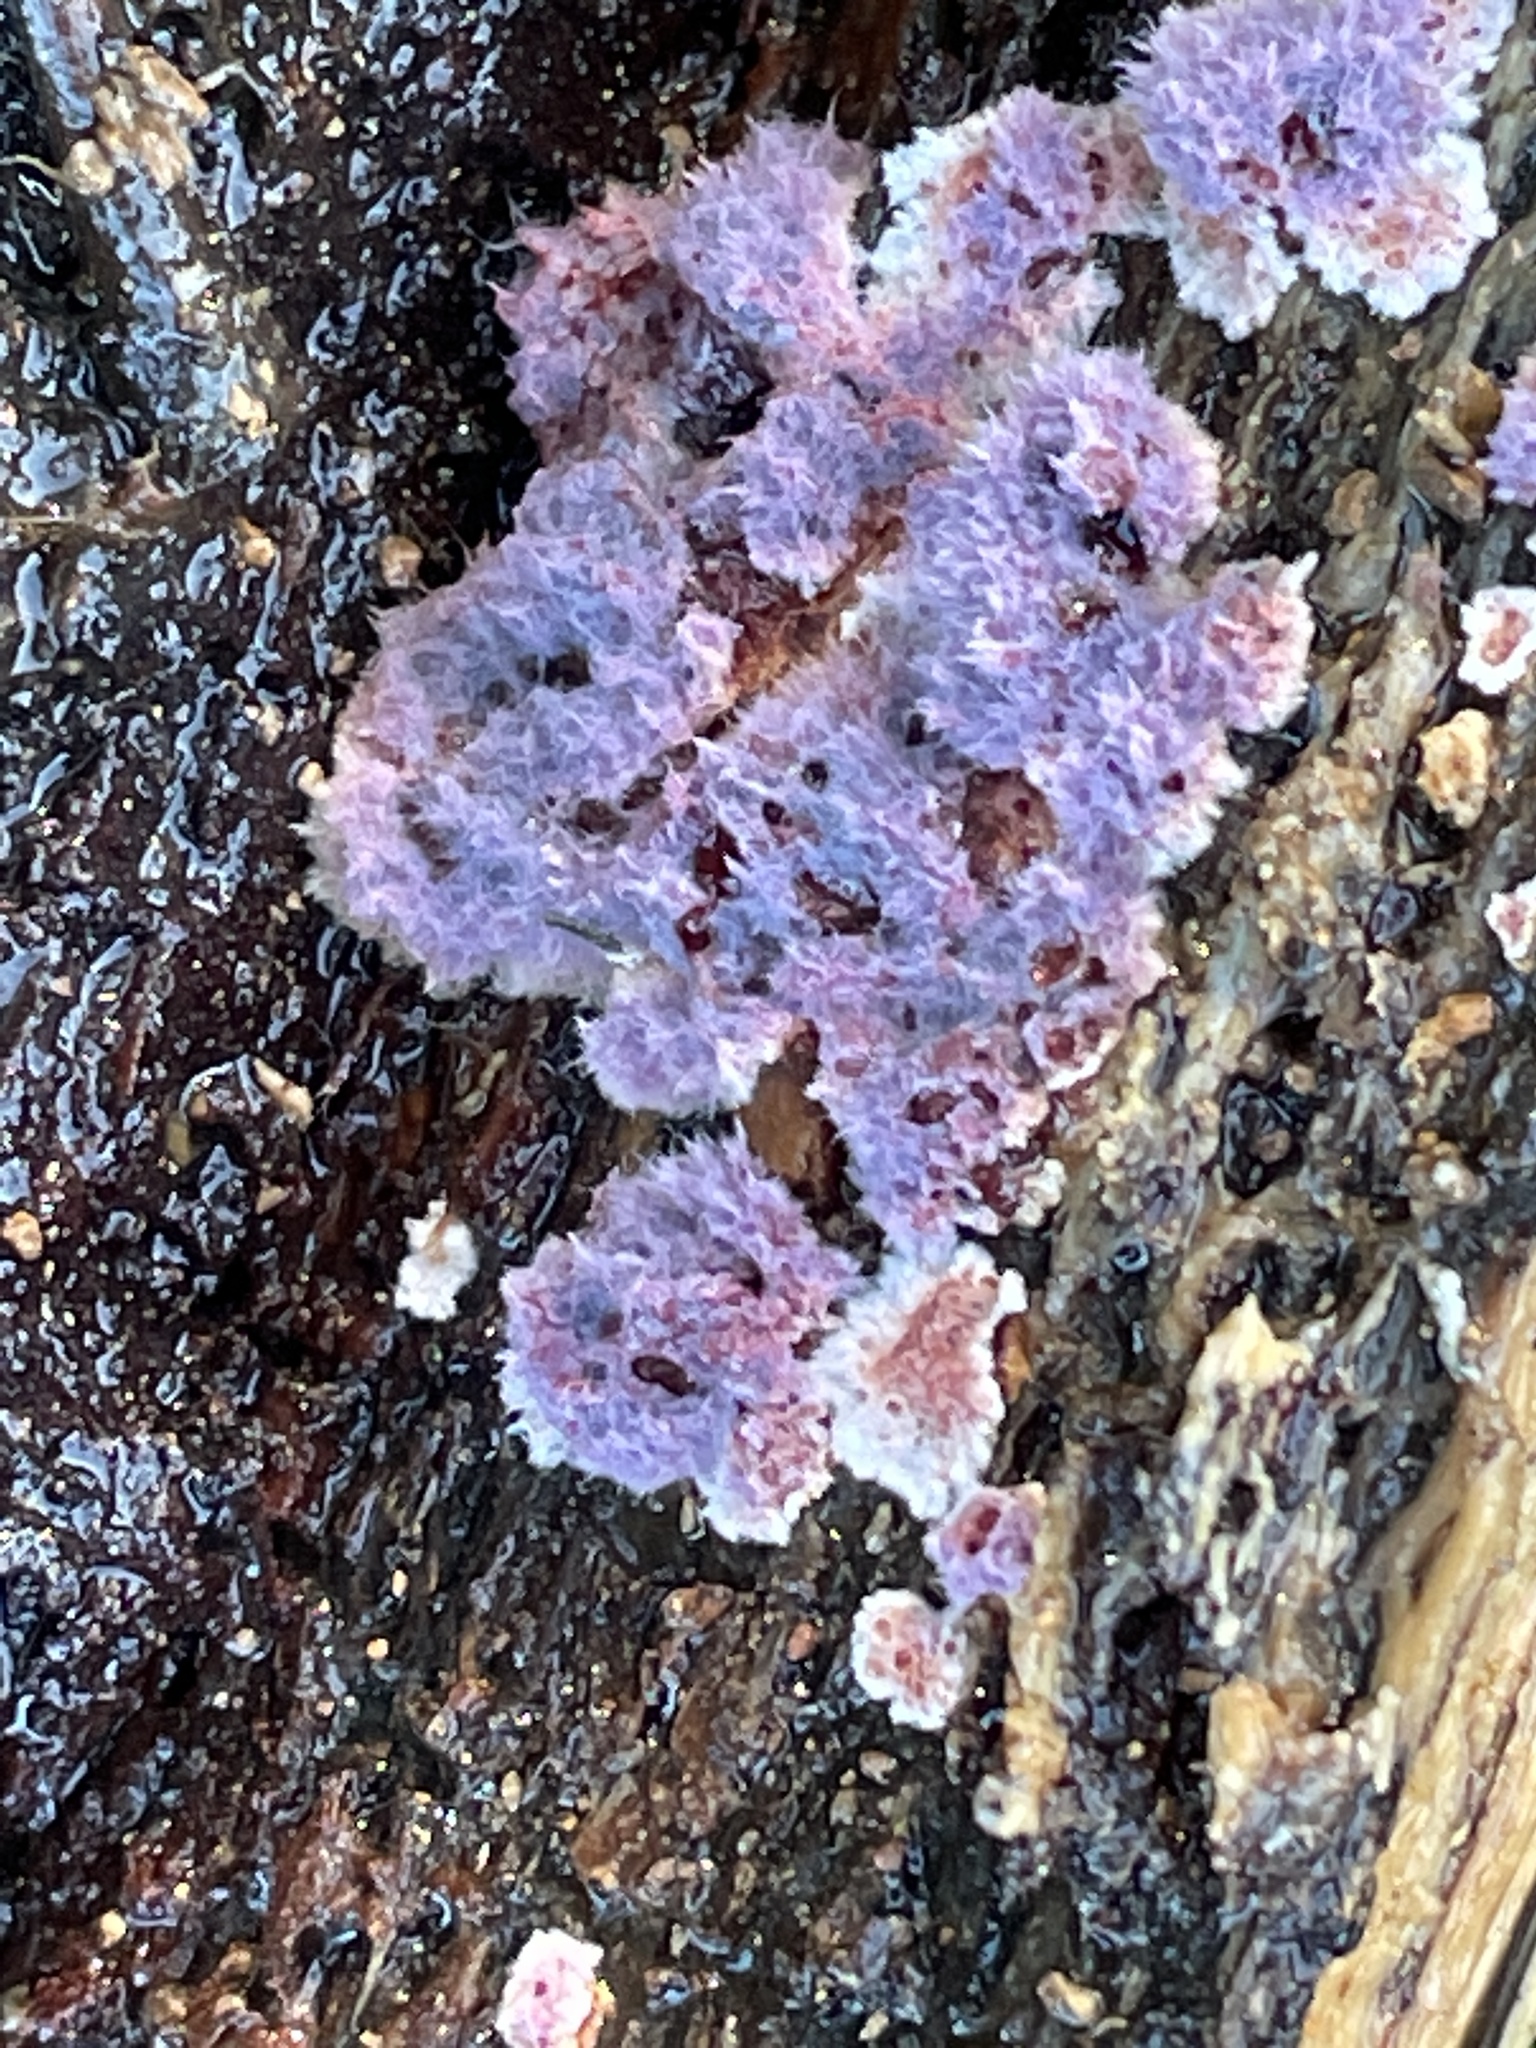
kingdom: Fungi
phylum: Basidiomycota
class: Agaricomycetes
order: Corticiales
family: Punctulariaceae
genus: Punctularia
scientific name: Punctularia atropurpurascens
